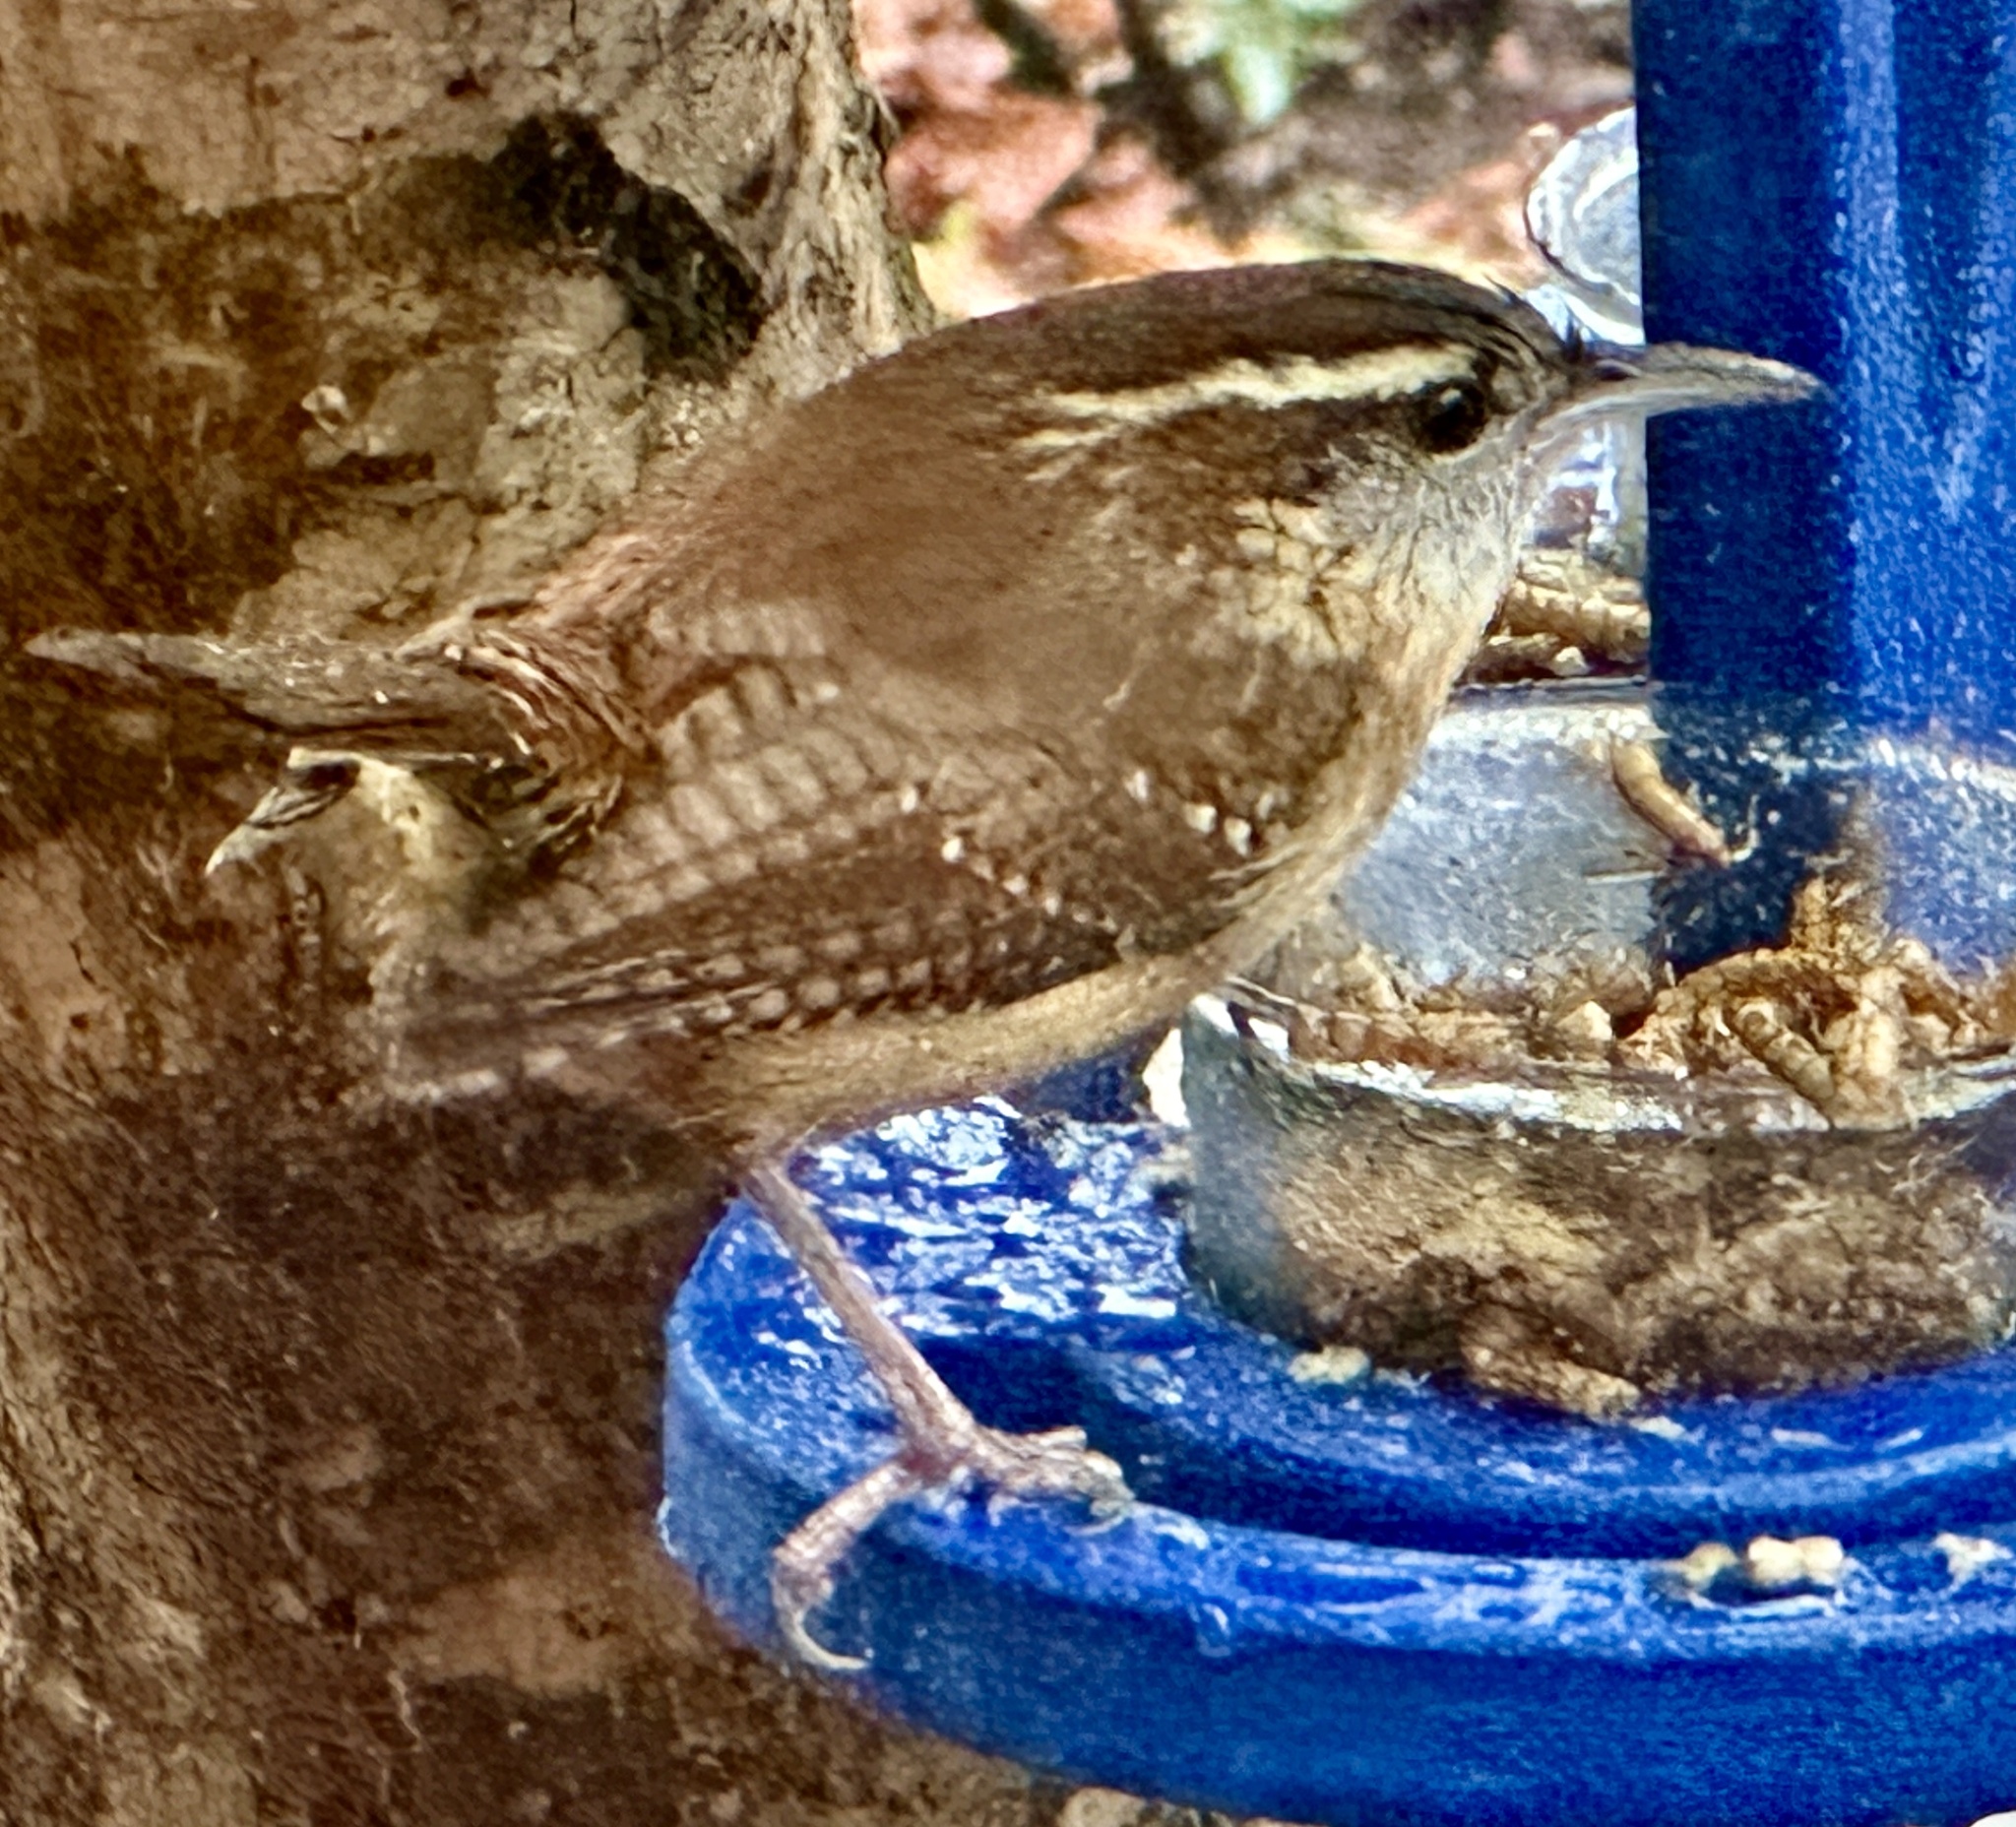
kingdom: Animalia
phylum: Chordata
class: Aves
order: Passeriformes
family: Troglodytidae
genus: Thryothorus
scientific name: Thryothorus ludovicianus
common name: Carolina wren
